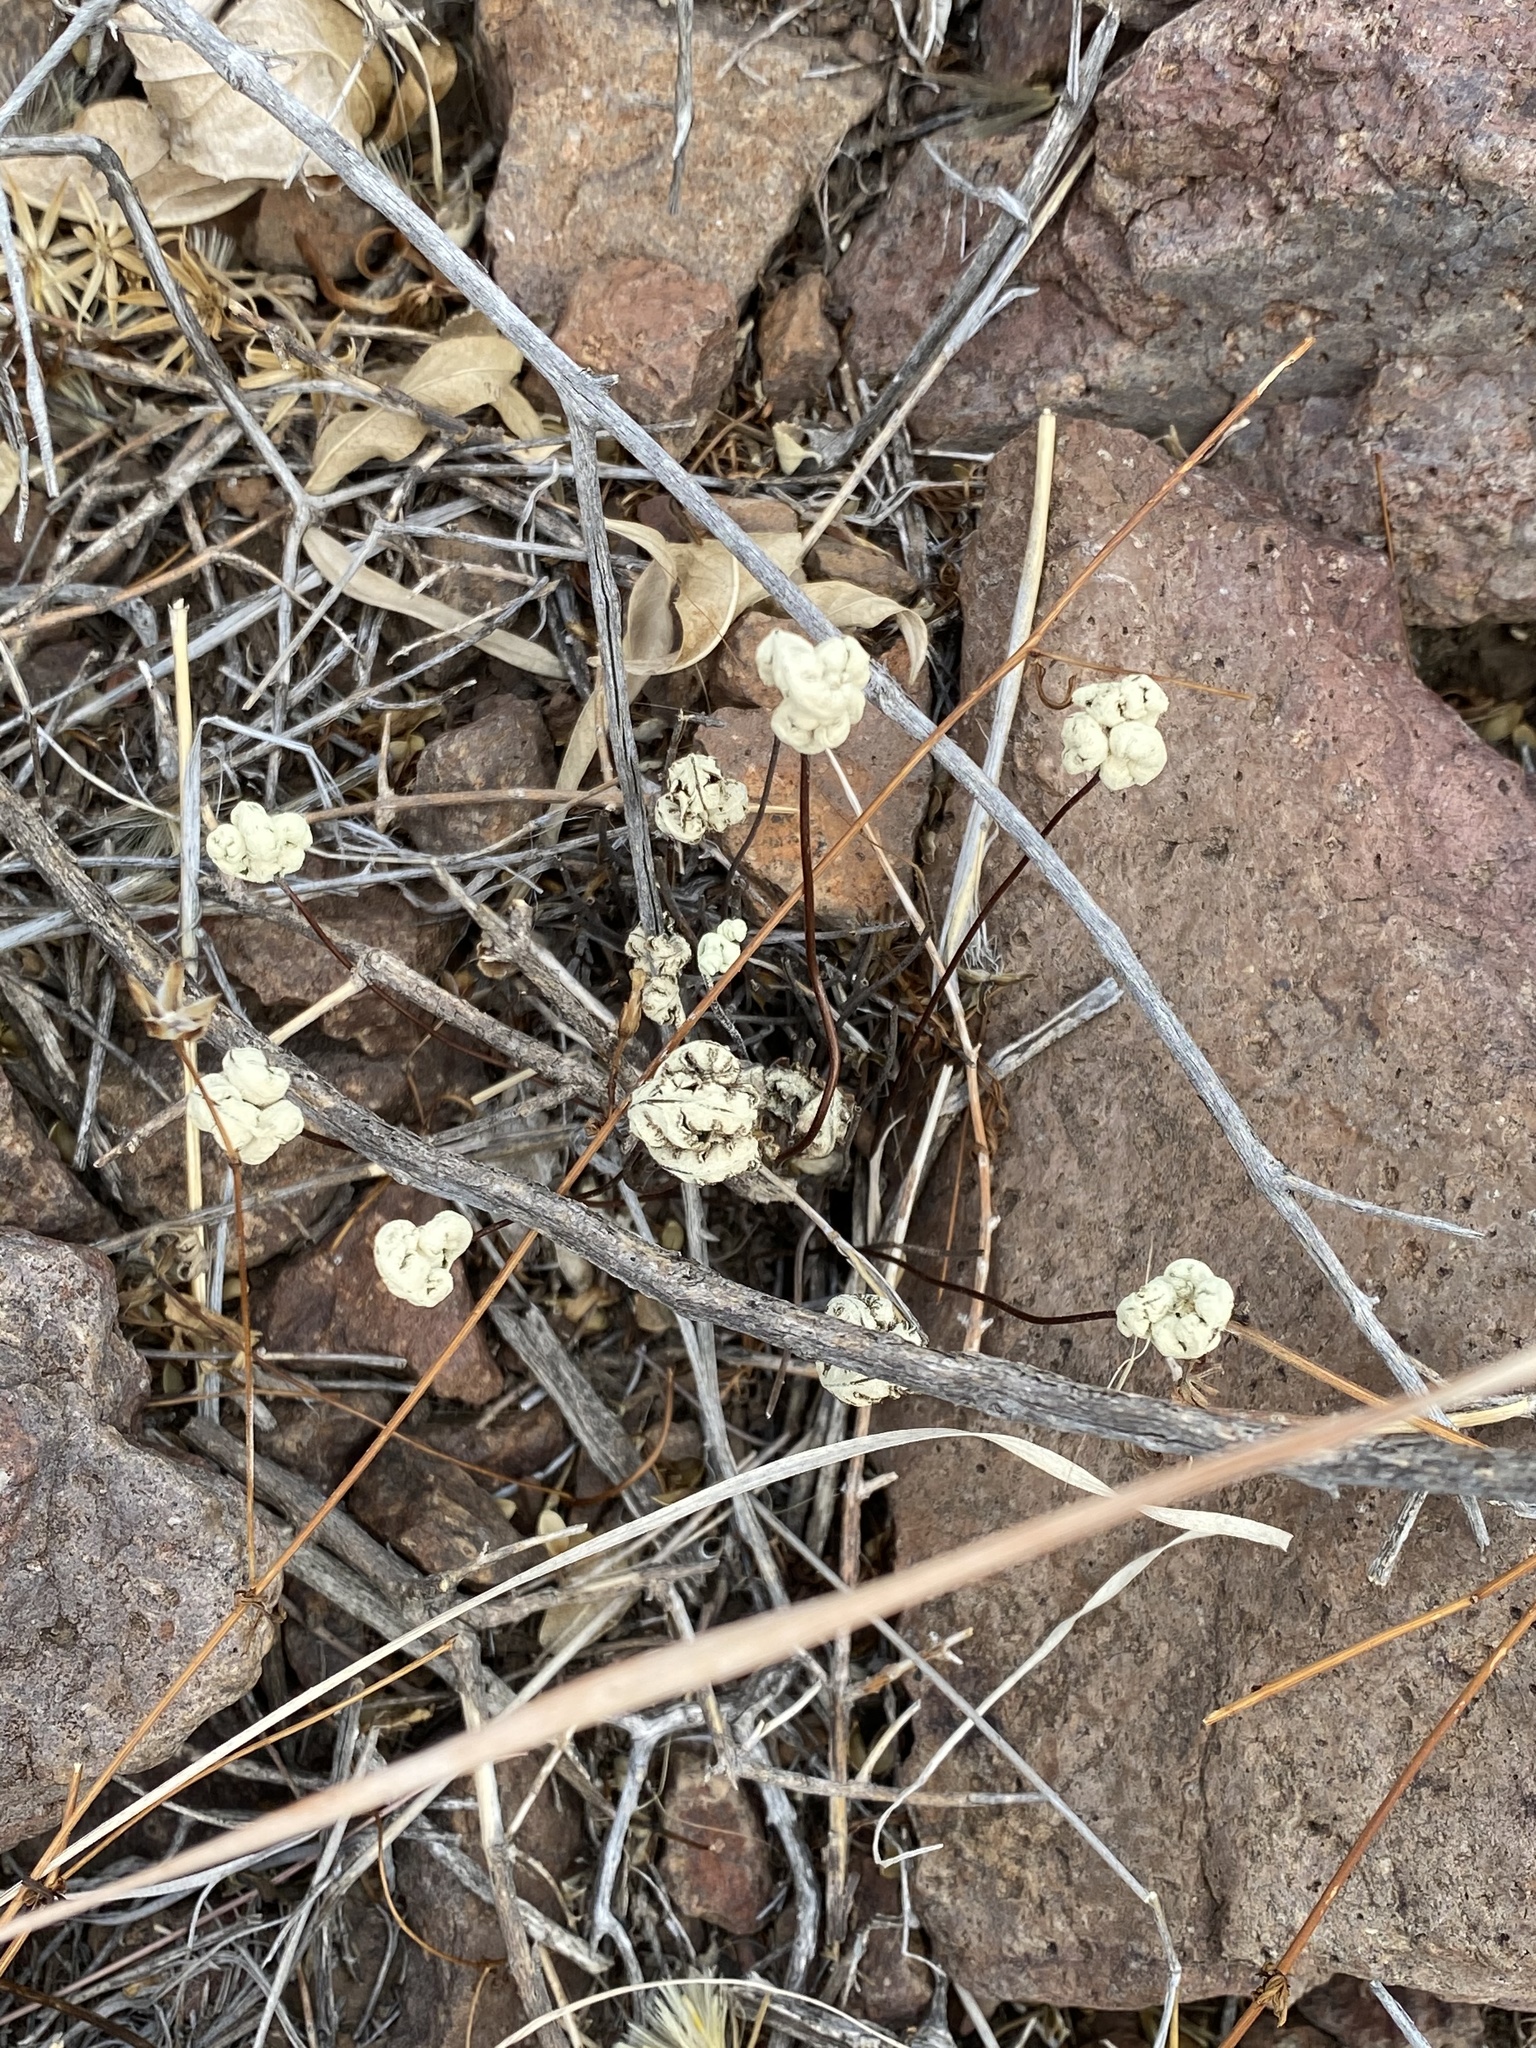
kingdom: Plantae
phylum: Tracheophyta
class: Polypodiopsida
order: Polypodiales
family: Pteridaceae
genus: Notholaena
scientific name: Notholaena standleyi
